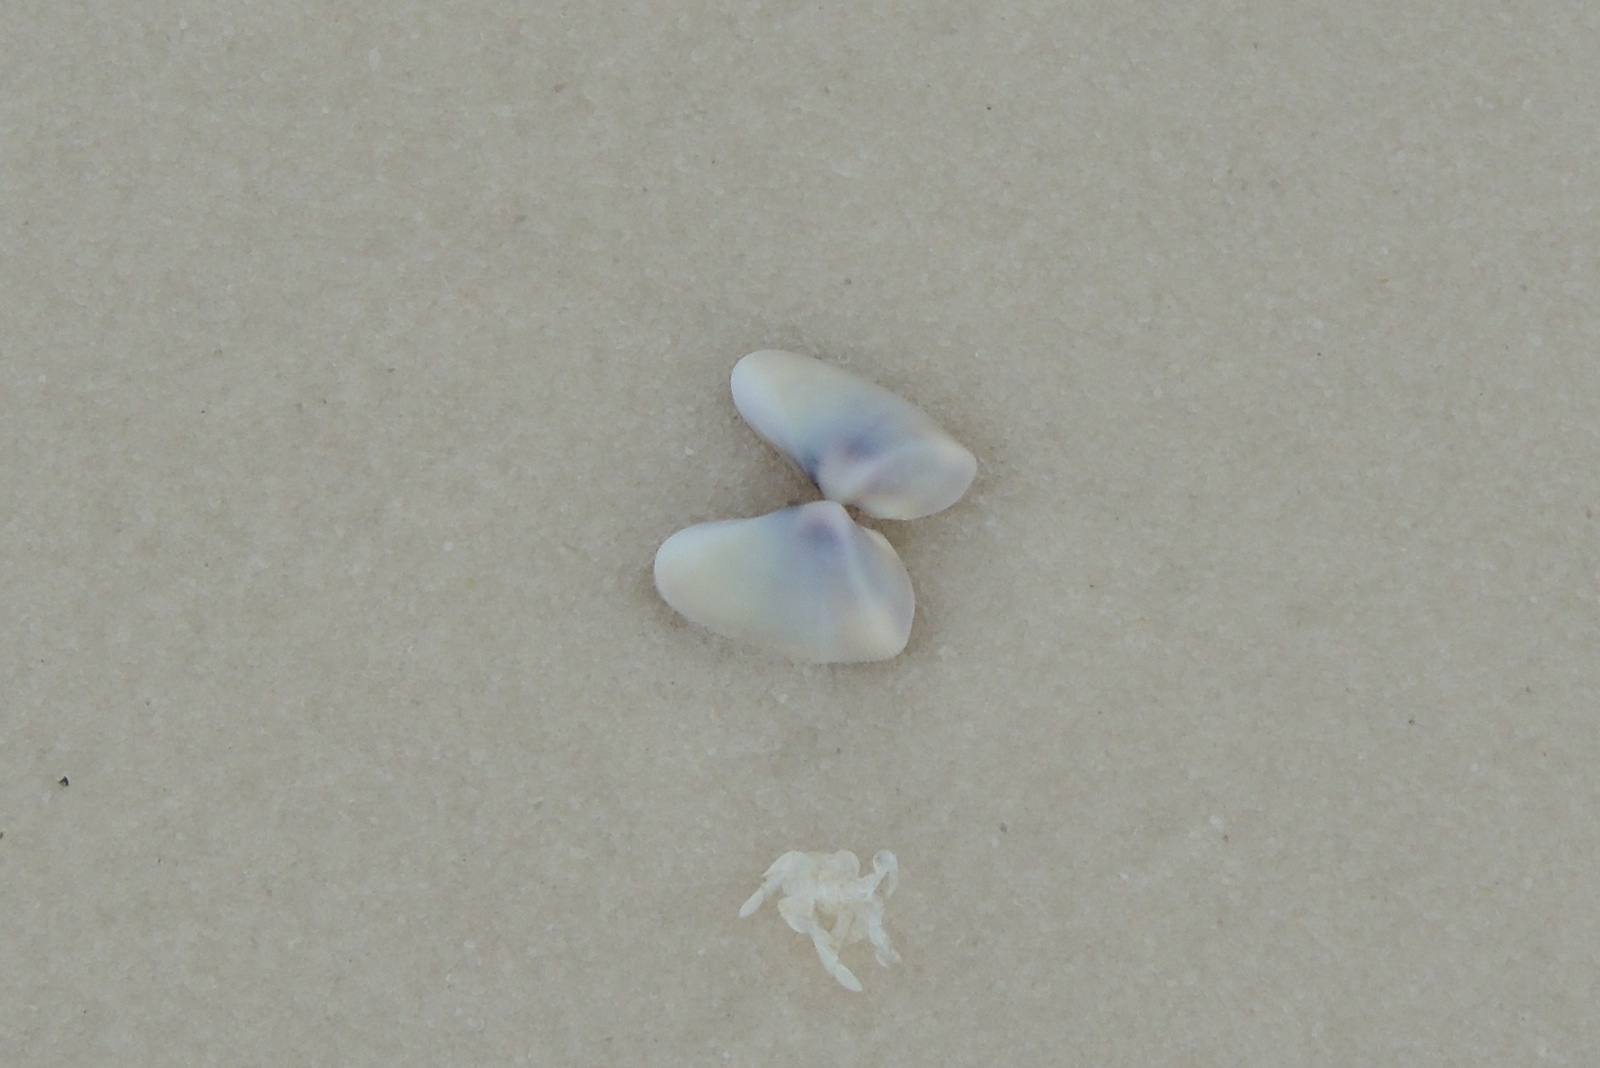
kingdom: Animalia
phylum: Mollusca
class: Bivalvia
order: Cardiida
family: Donacidae
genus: Donax
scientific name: Donax variabilis
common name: Butterfly shell
